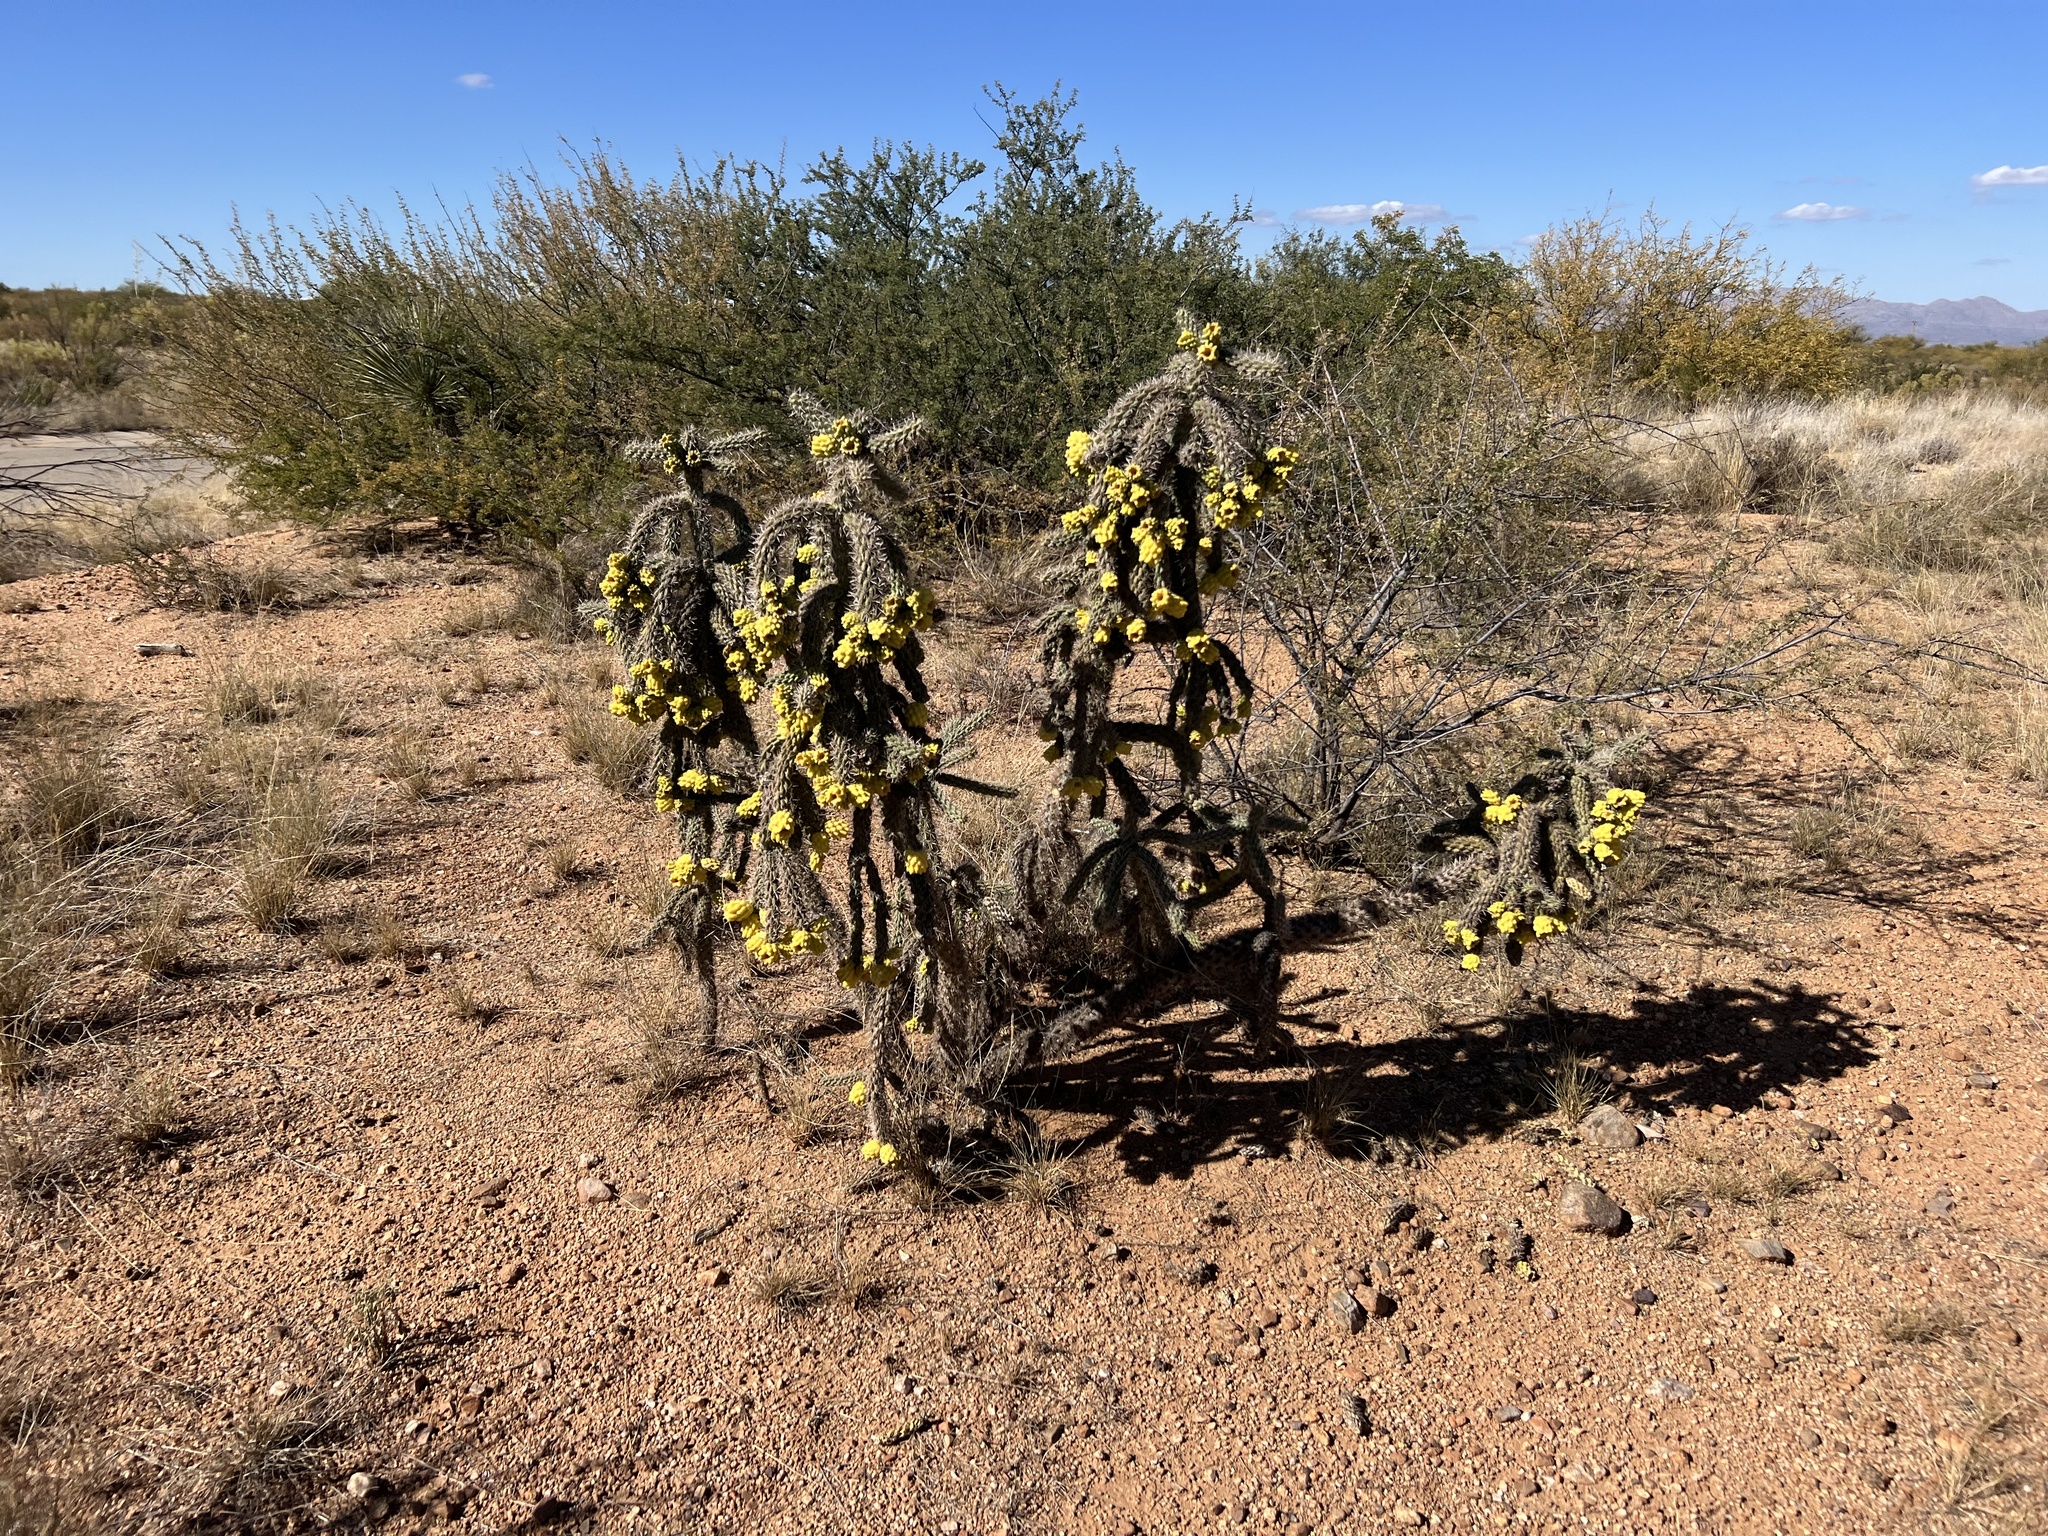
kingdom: Plantae
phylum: Tracheophyta
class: Magnoliopsida
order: Caryophyllales
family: Cactaceae
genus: Cylindropuntia
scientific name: Cylindropuntia imbricata
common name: Candelabrum cactus
